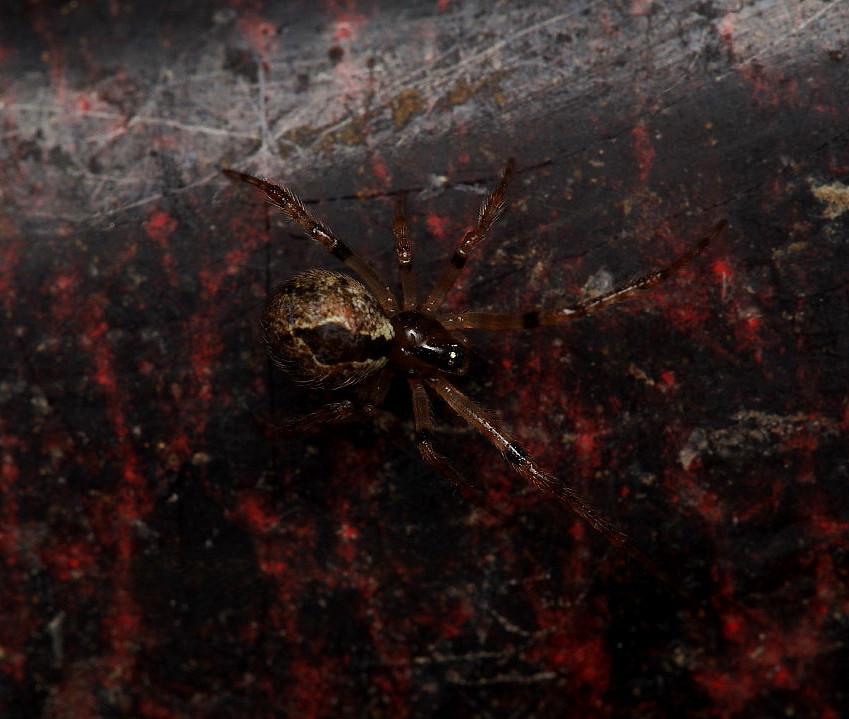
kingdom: Animalia
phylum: Arthropoda
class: Arachnida
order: Araneae
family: Theridiidae
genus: Cryptachaea
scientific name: Cryptachaea veruculata
